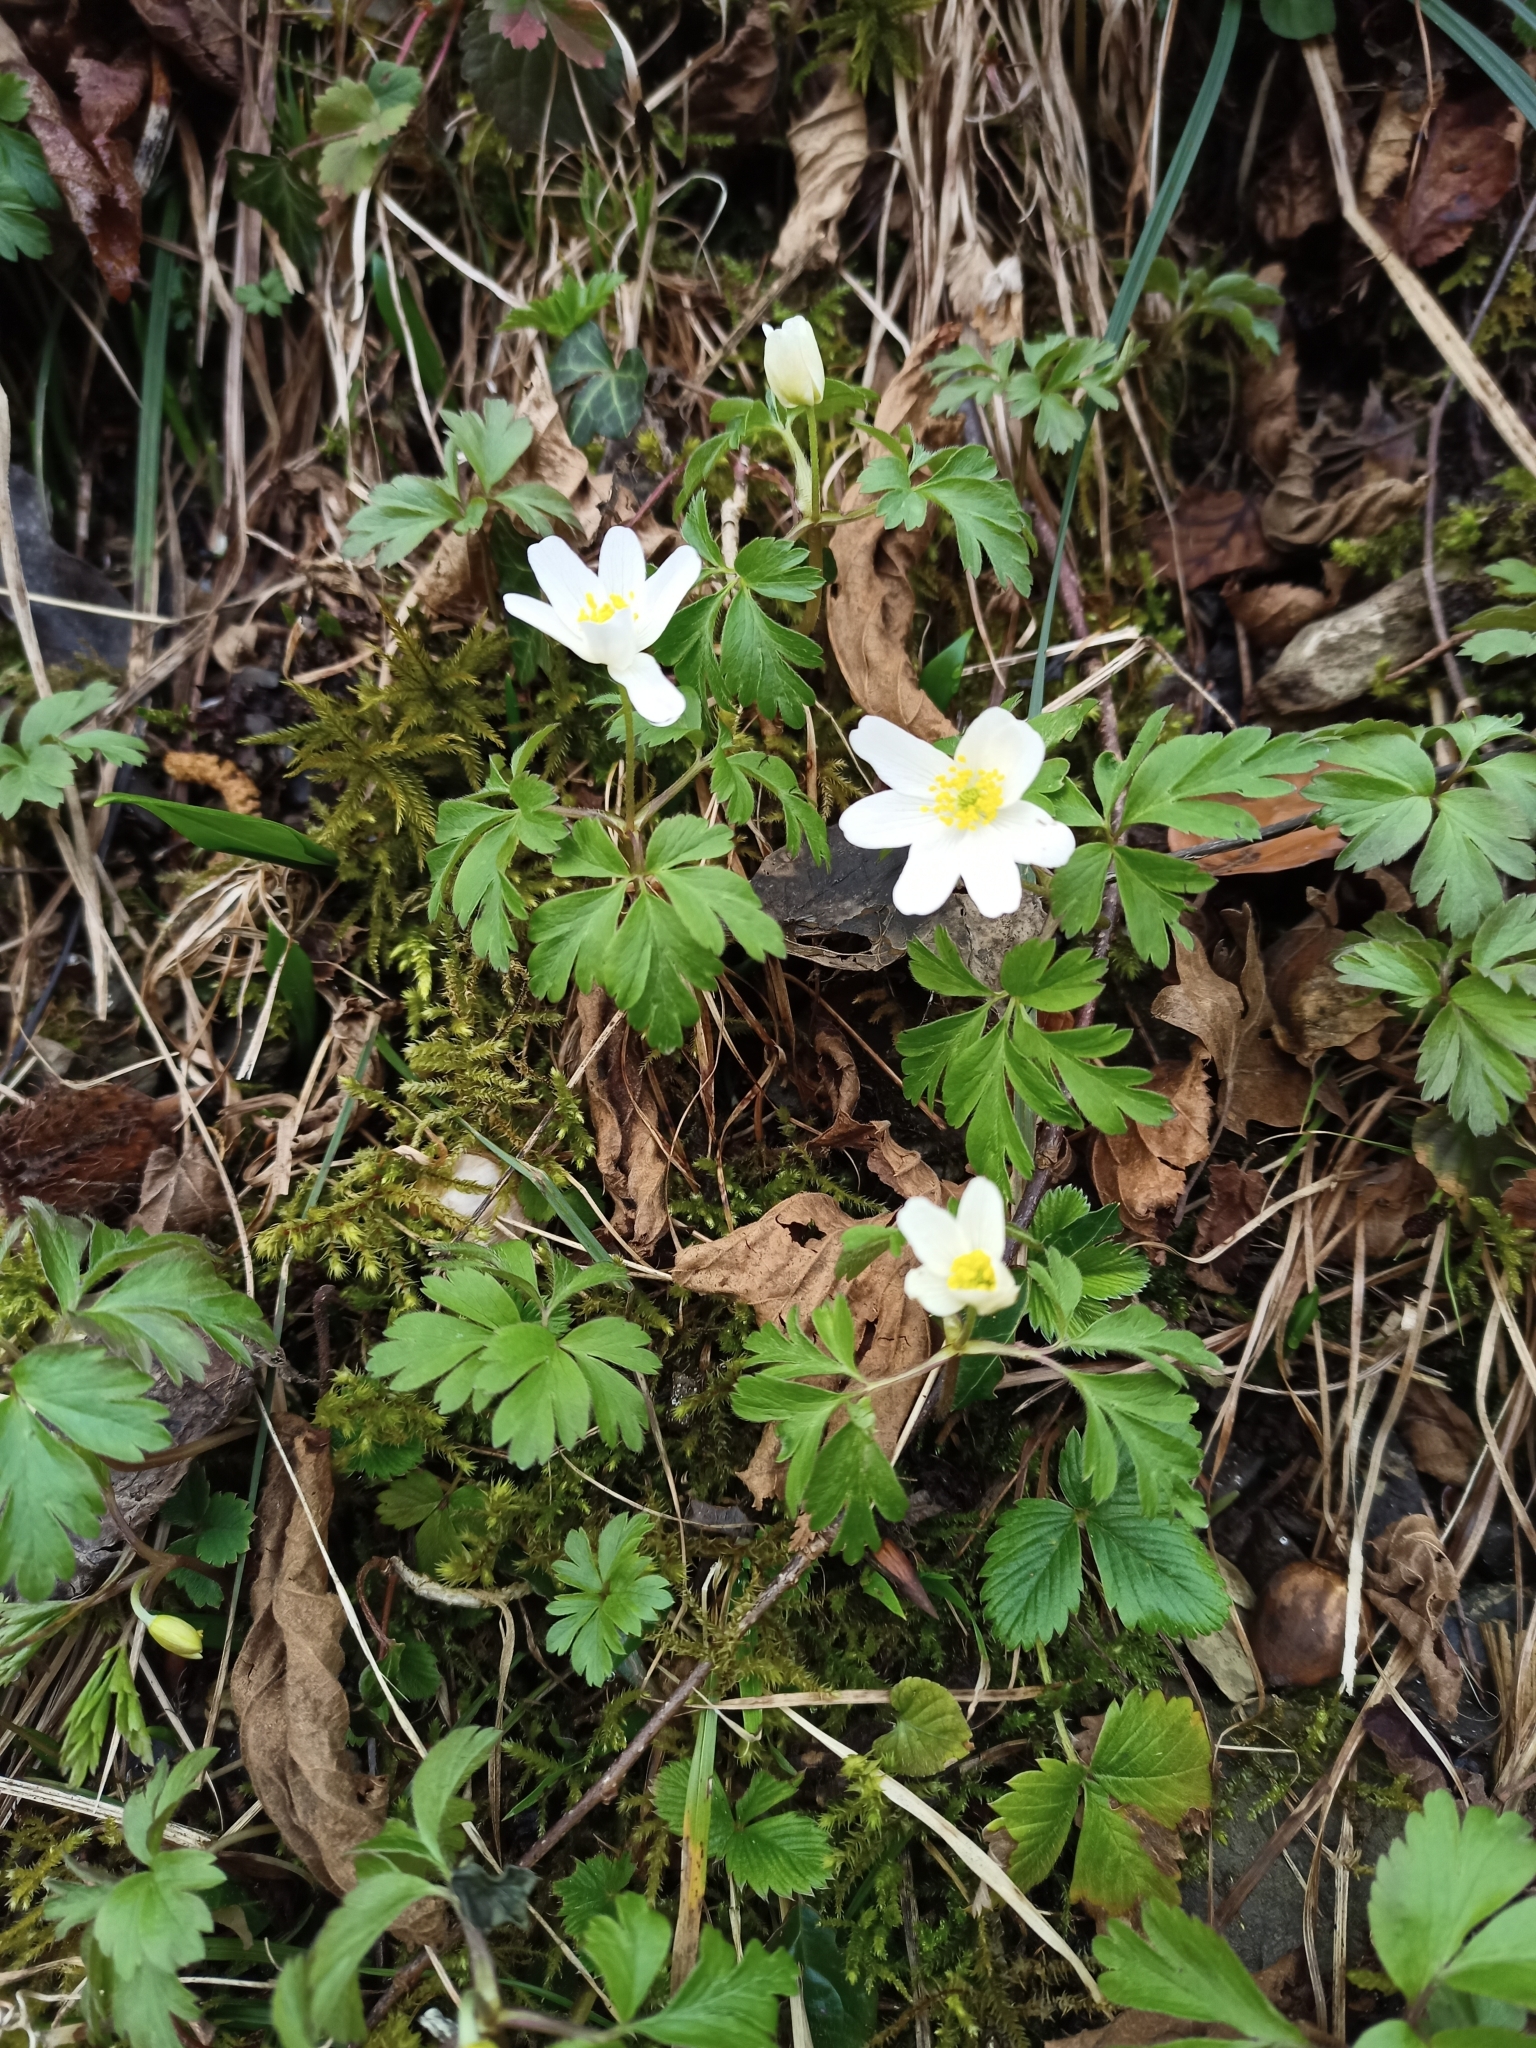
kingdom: Plantae
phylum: Tracheophyta
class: Magnoliopsida
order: Ranunculales
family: Ranunculaceae
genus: Anemone
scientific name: Anemone nemorosa
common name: Wood anemone
